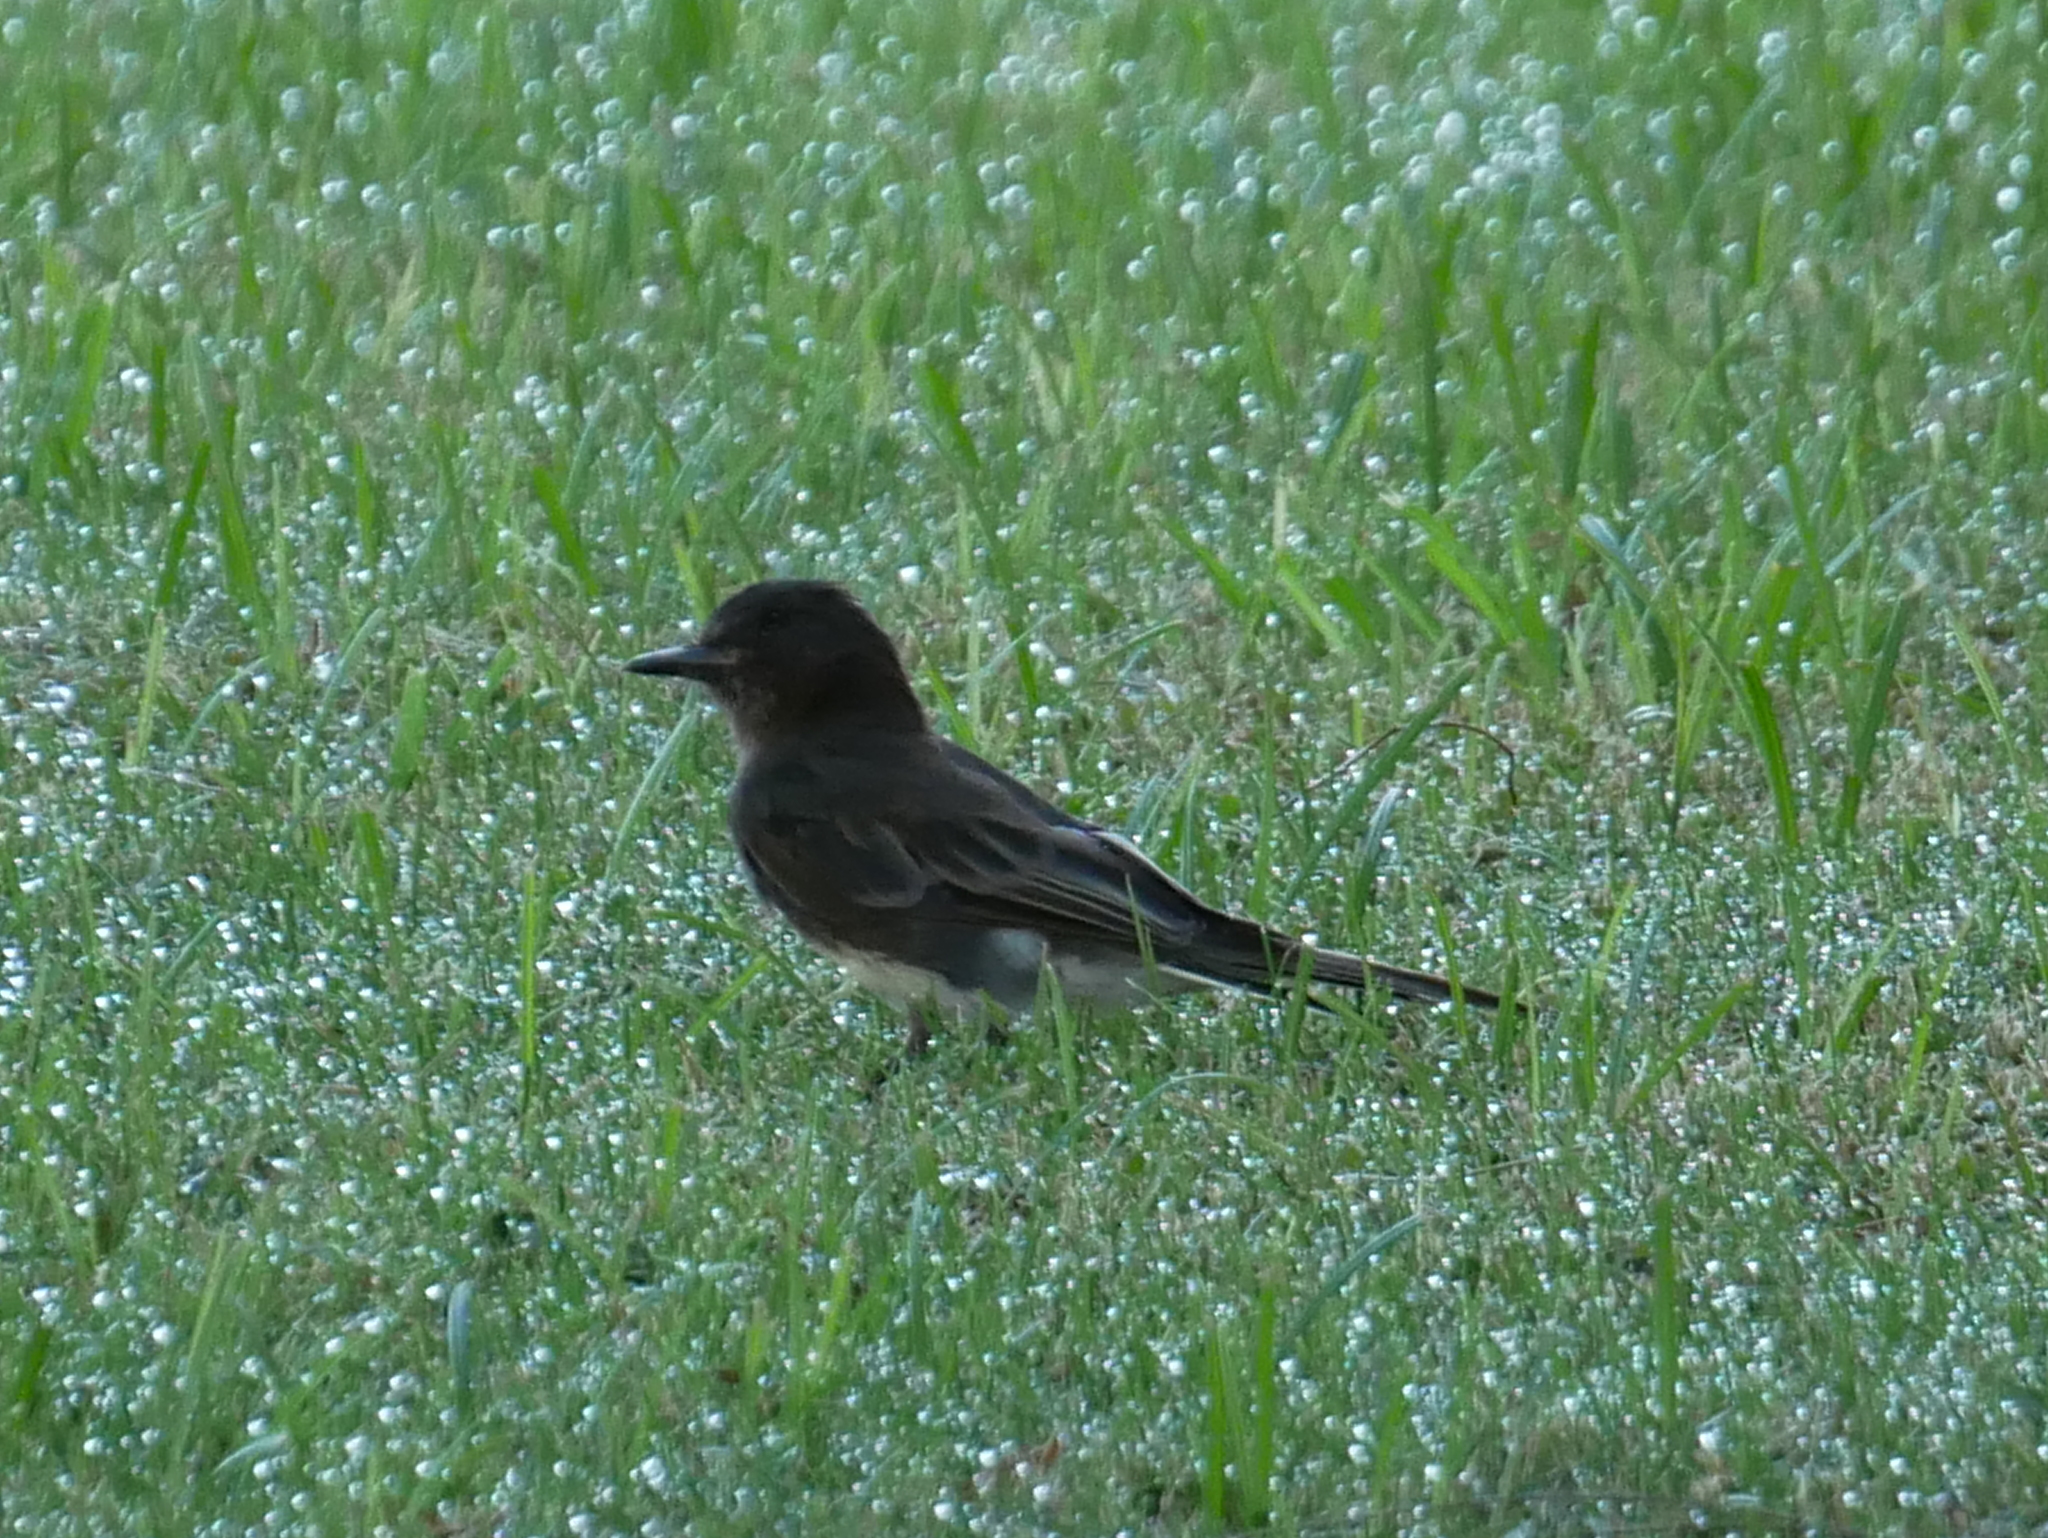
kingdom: Animalia
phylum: Chordata
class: Aves
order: Passeriformes
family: Tyrannidae
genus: Sayornis
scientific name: Sayornis nigricans
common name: Black phoebe
